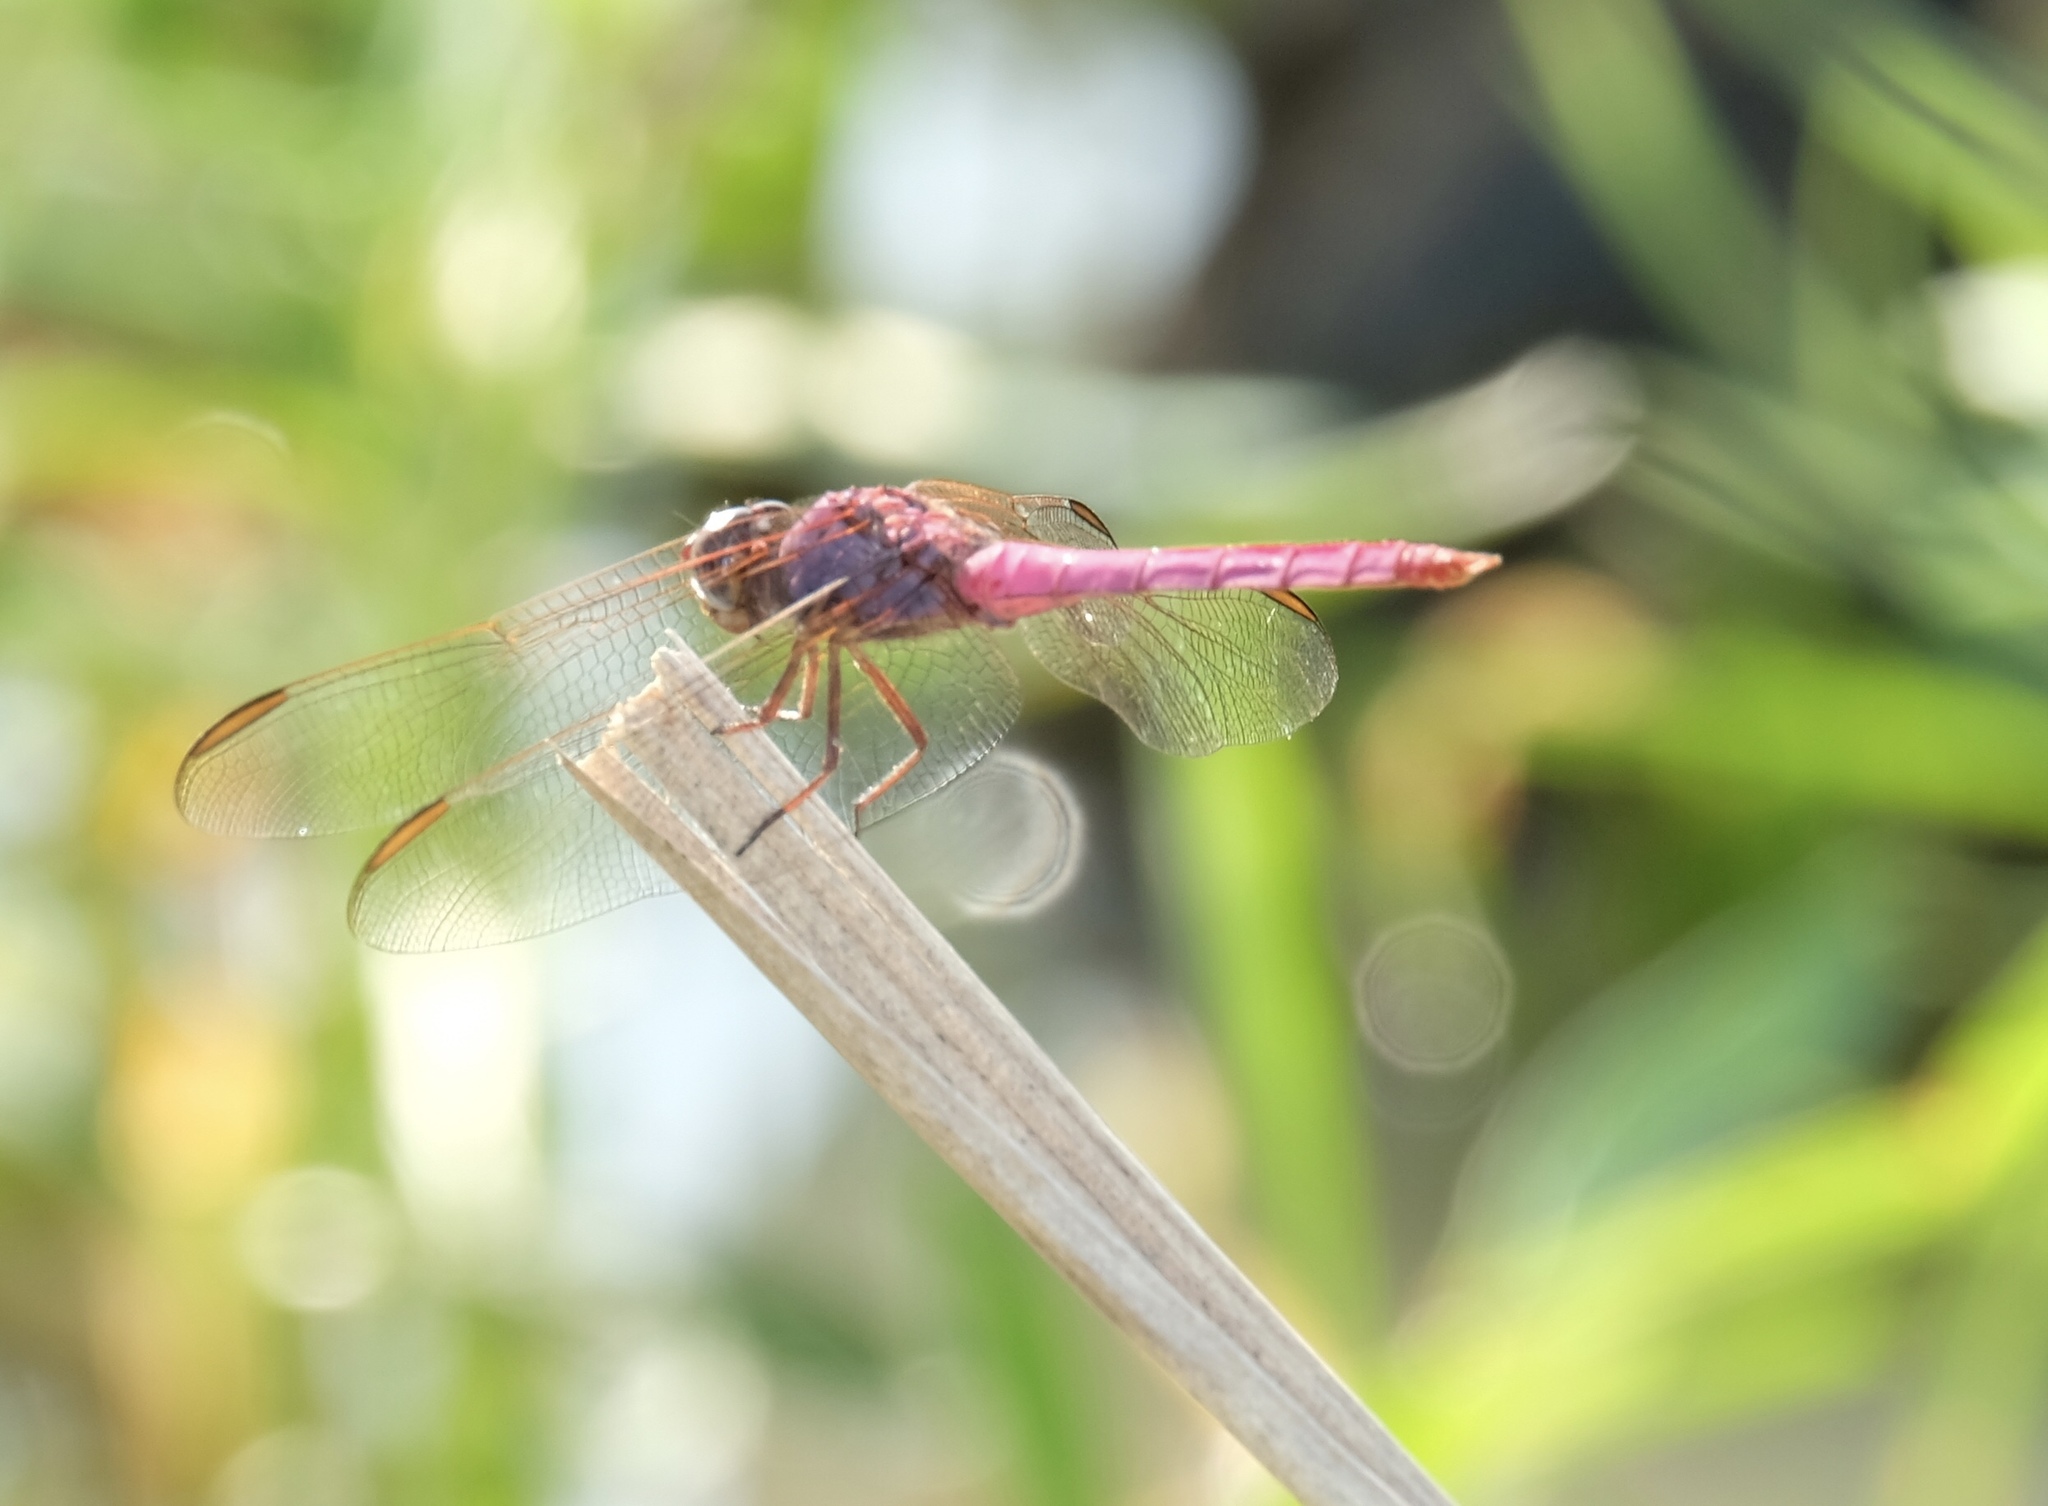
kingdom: Animalia
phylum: Arthropoda
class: Insecta
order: Odonata
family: Libellulidae
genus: Orthemis
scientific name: Orthemis ferruginea
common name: Roseate skimmer
